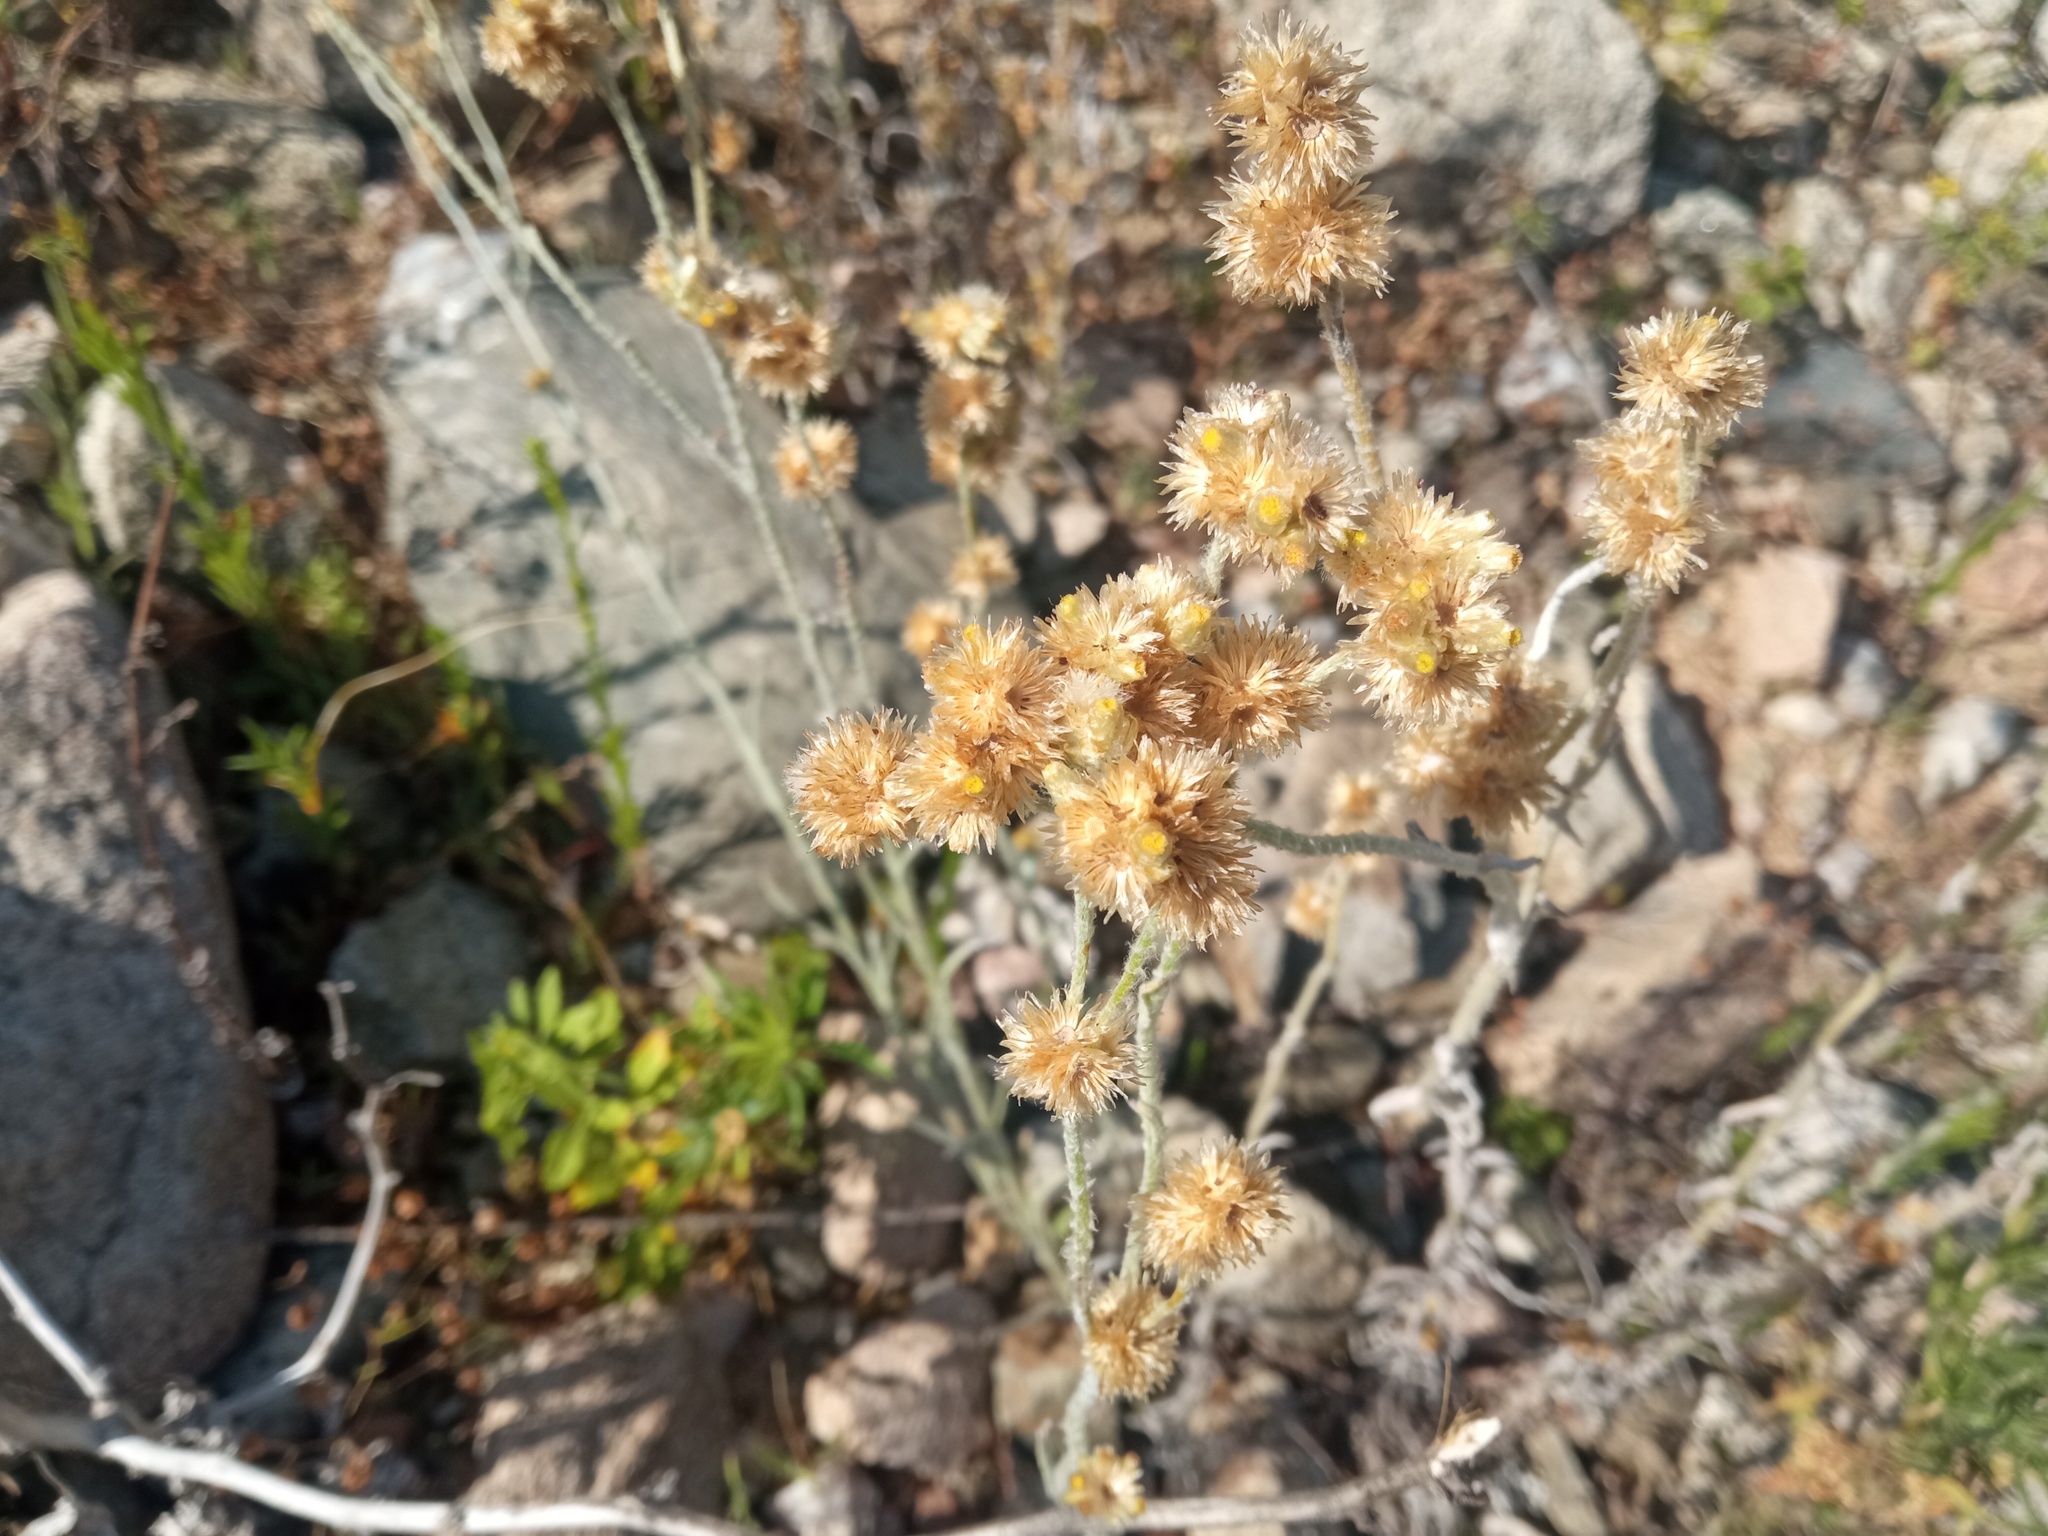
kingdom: Plantae
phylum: Tracheophyta
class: Magnoliopsida
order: Asterales
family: Asteraceae
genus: Helichrysum
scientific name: Helichrysum luteoalbum
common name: Daisy
